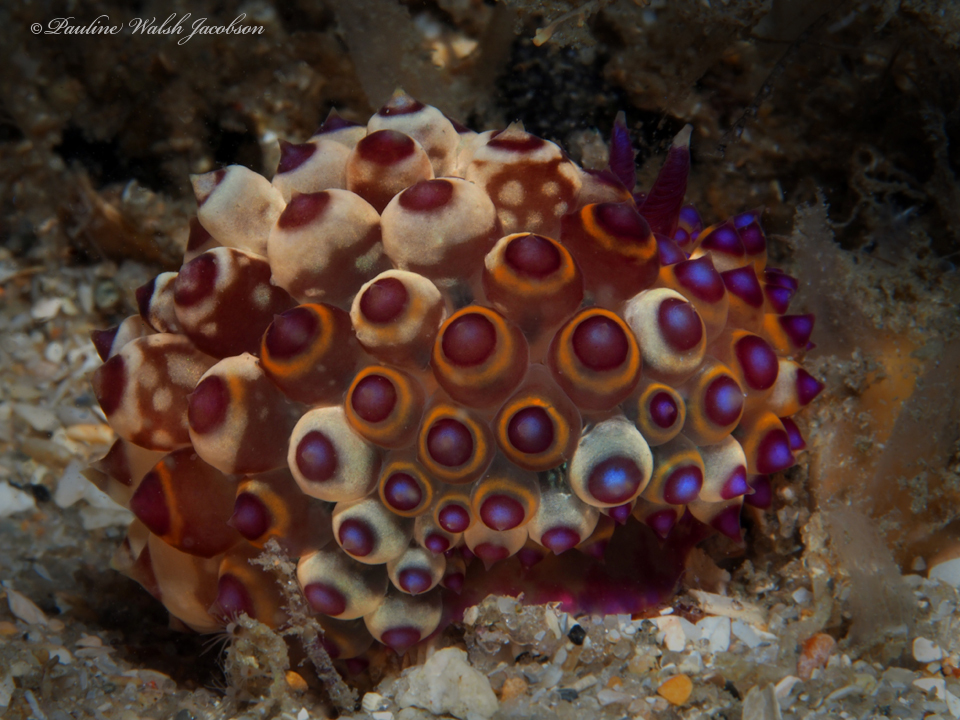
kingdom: Animalia
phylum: Mollusca
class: Gastropoda
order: Nudibranchia
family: Janolidae
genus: Janolus
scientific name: Janolus flavoanulatus
